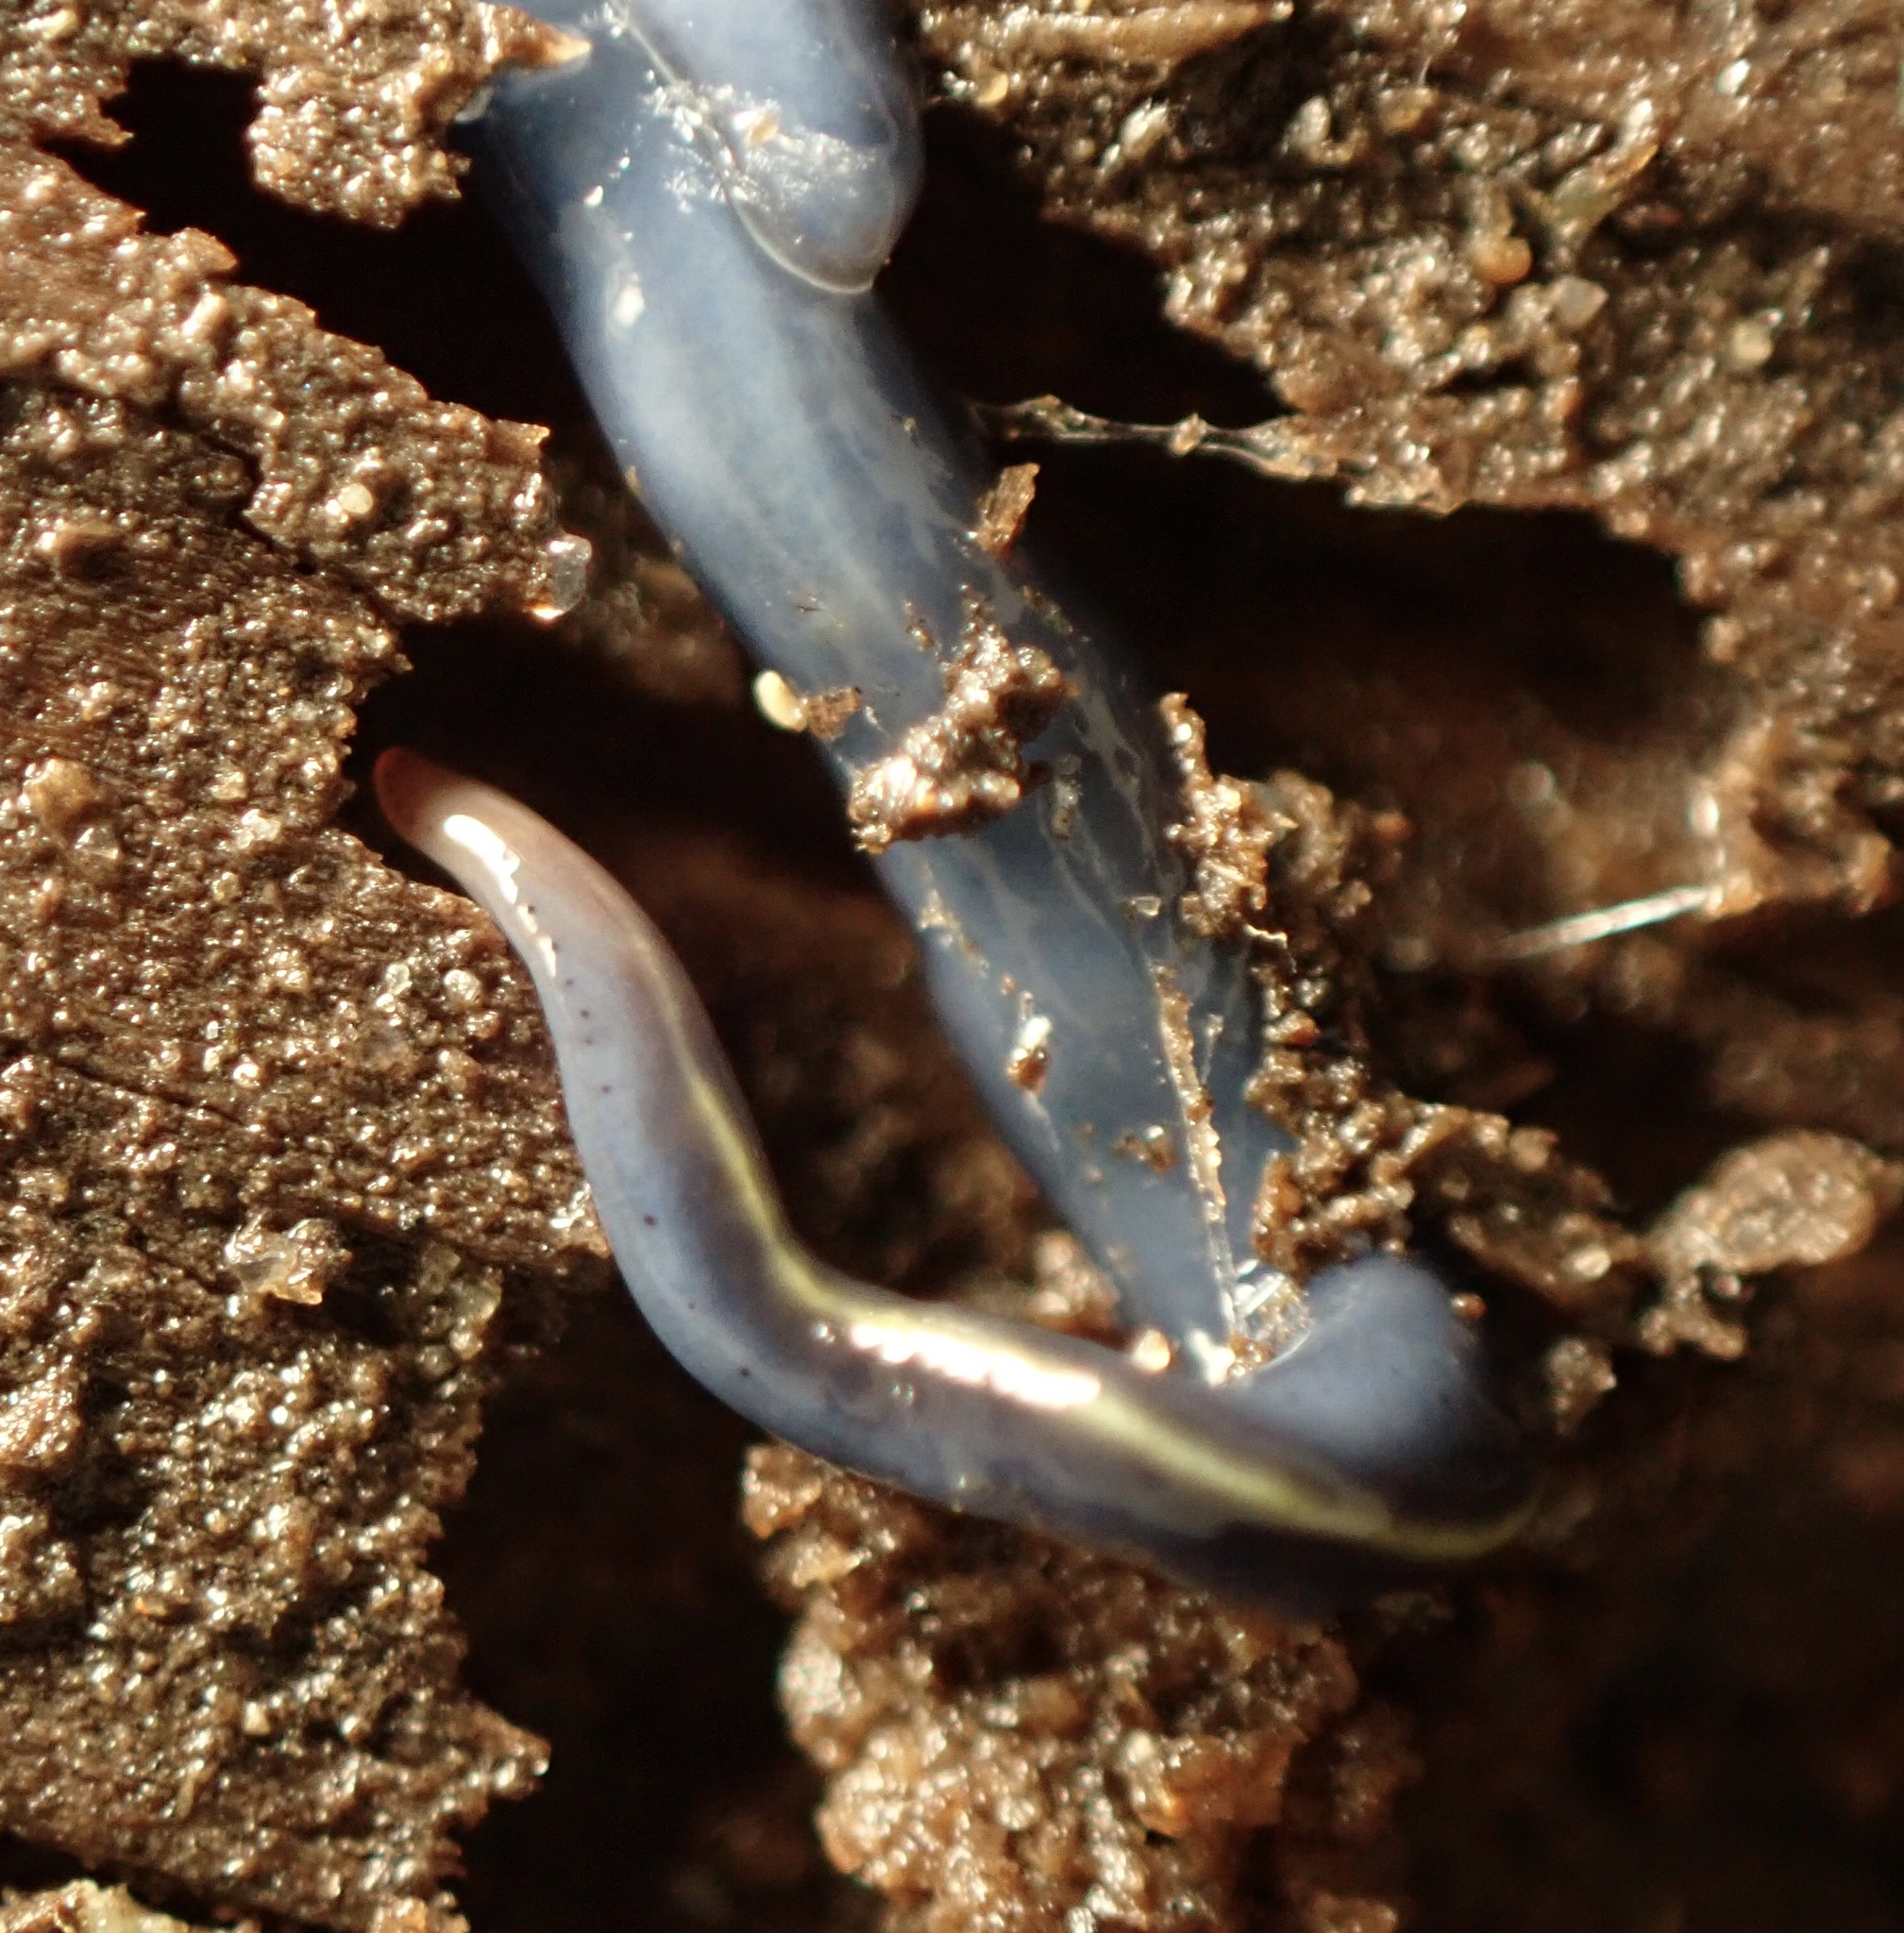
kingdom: Animalia
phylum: Platyhelminthes
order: Tricladida
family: Geoplanidae
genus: Caenoplana
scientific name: Caenoplana coerulea
